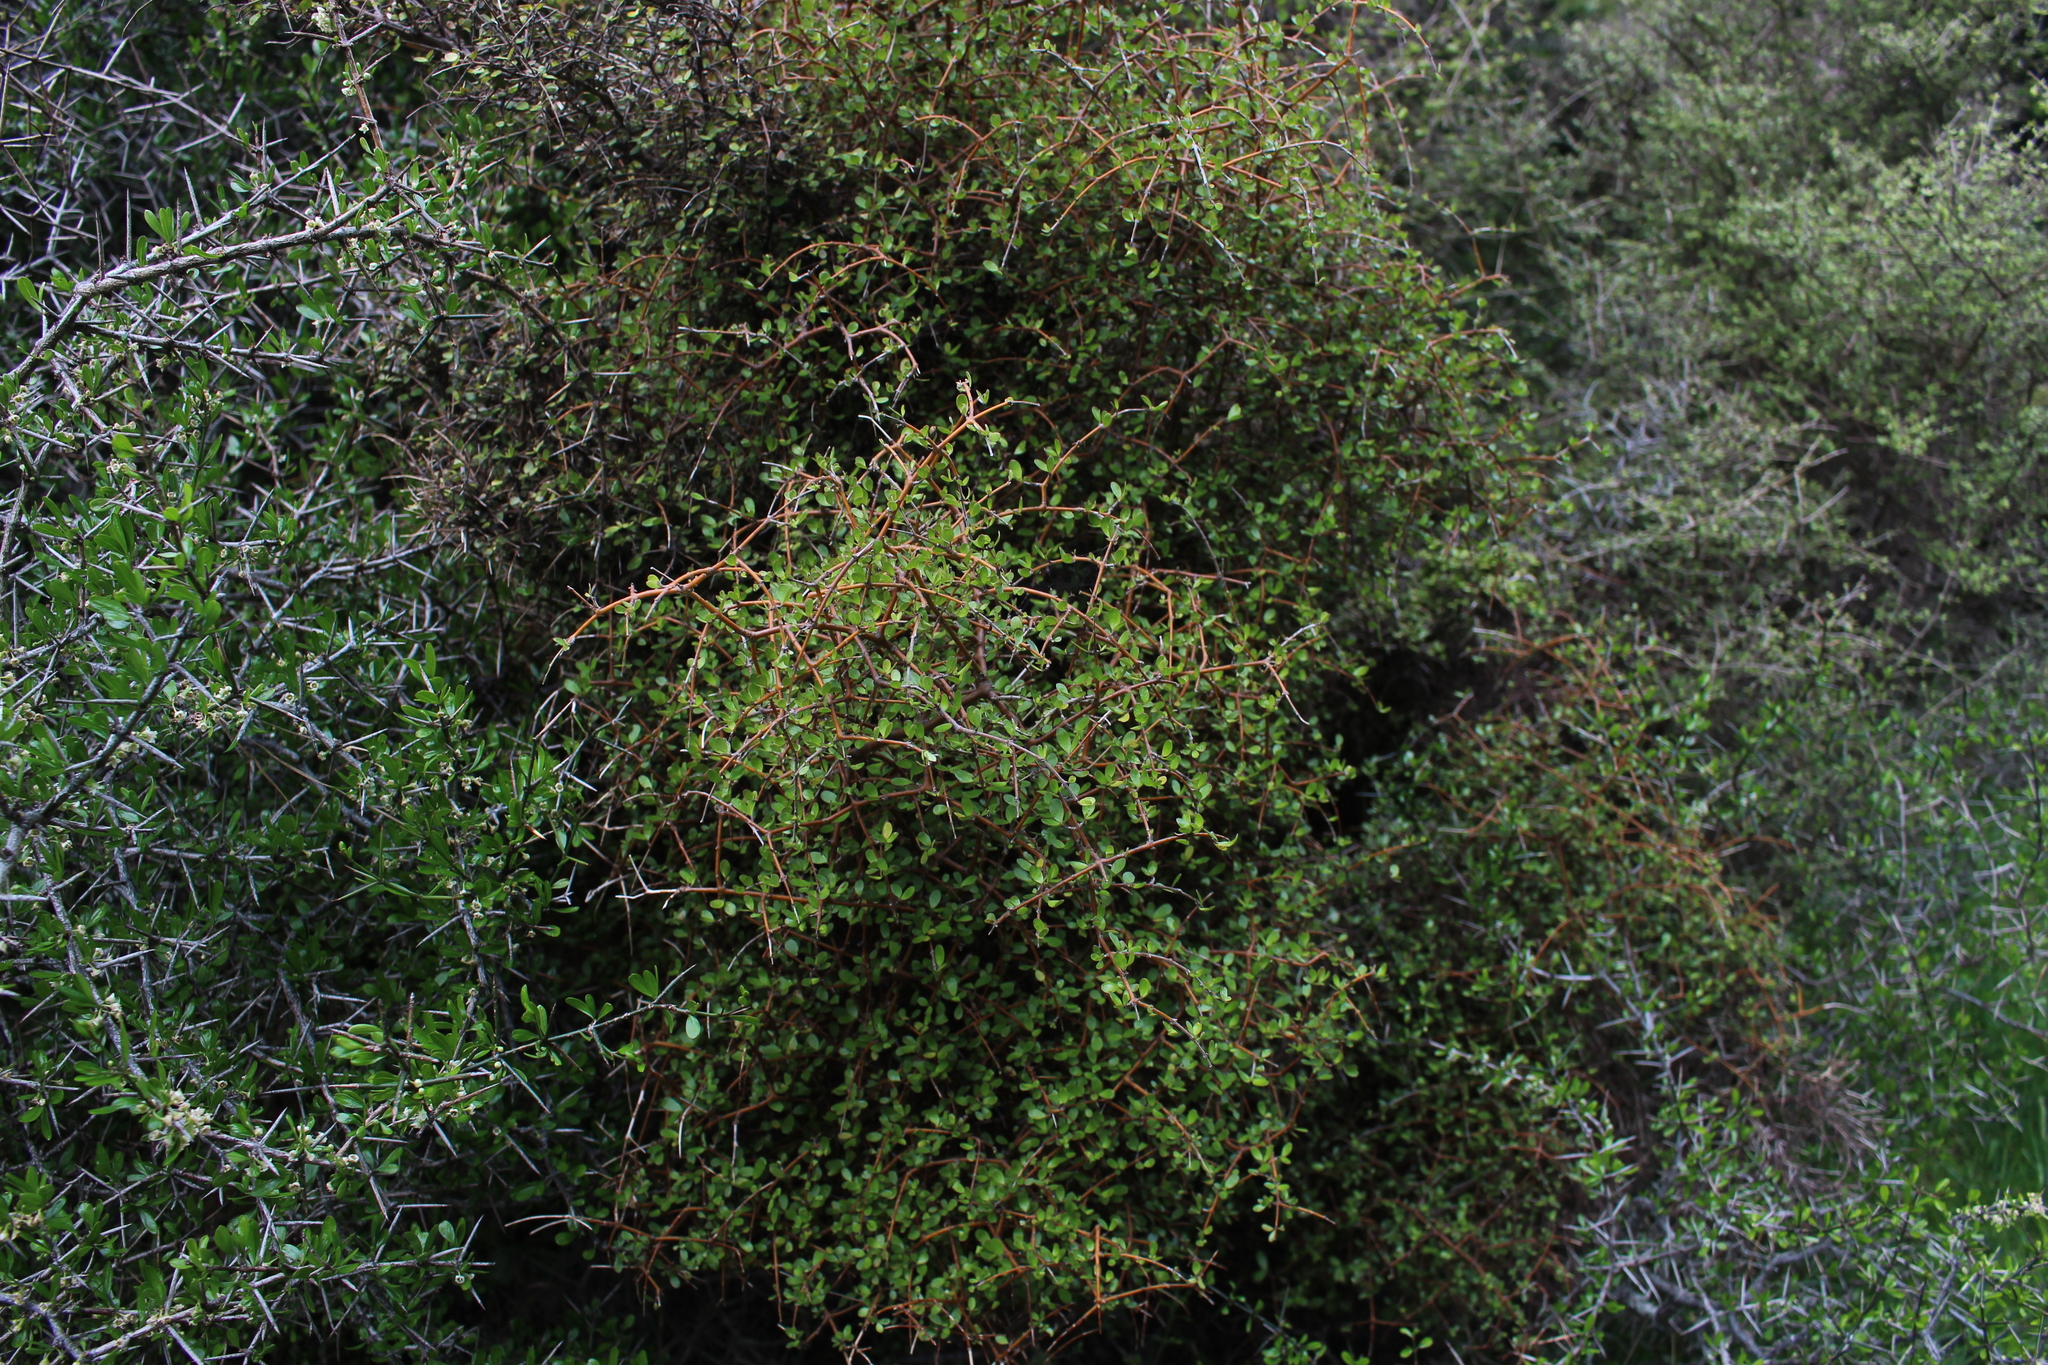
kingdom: Plantae
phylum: Tracheophyta
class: Magnoliopsida
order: Gentianales
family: Rubiaceae
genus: Coprosma
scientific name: Coprosma rigida
